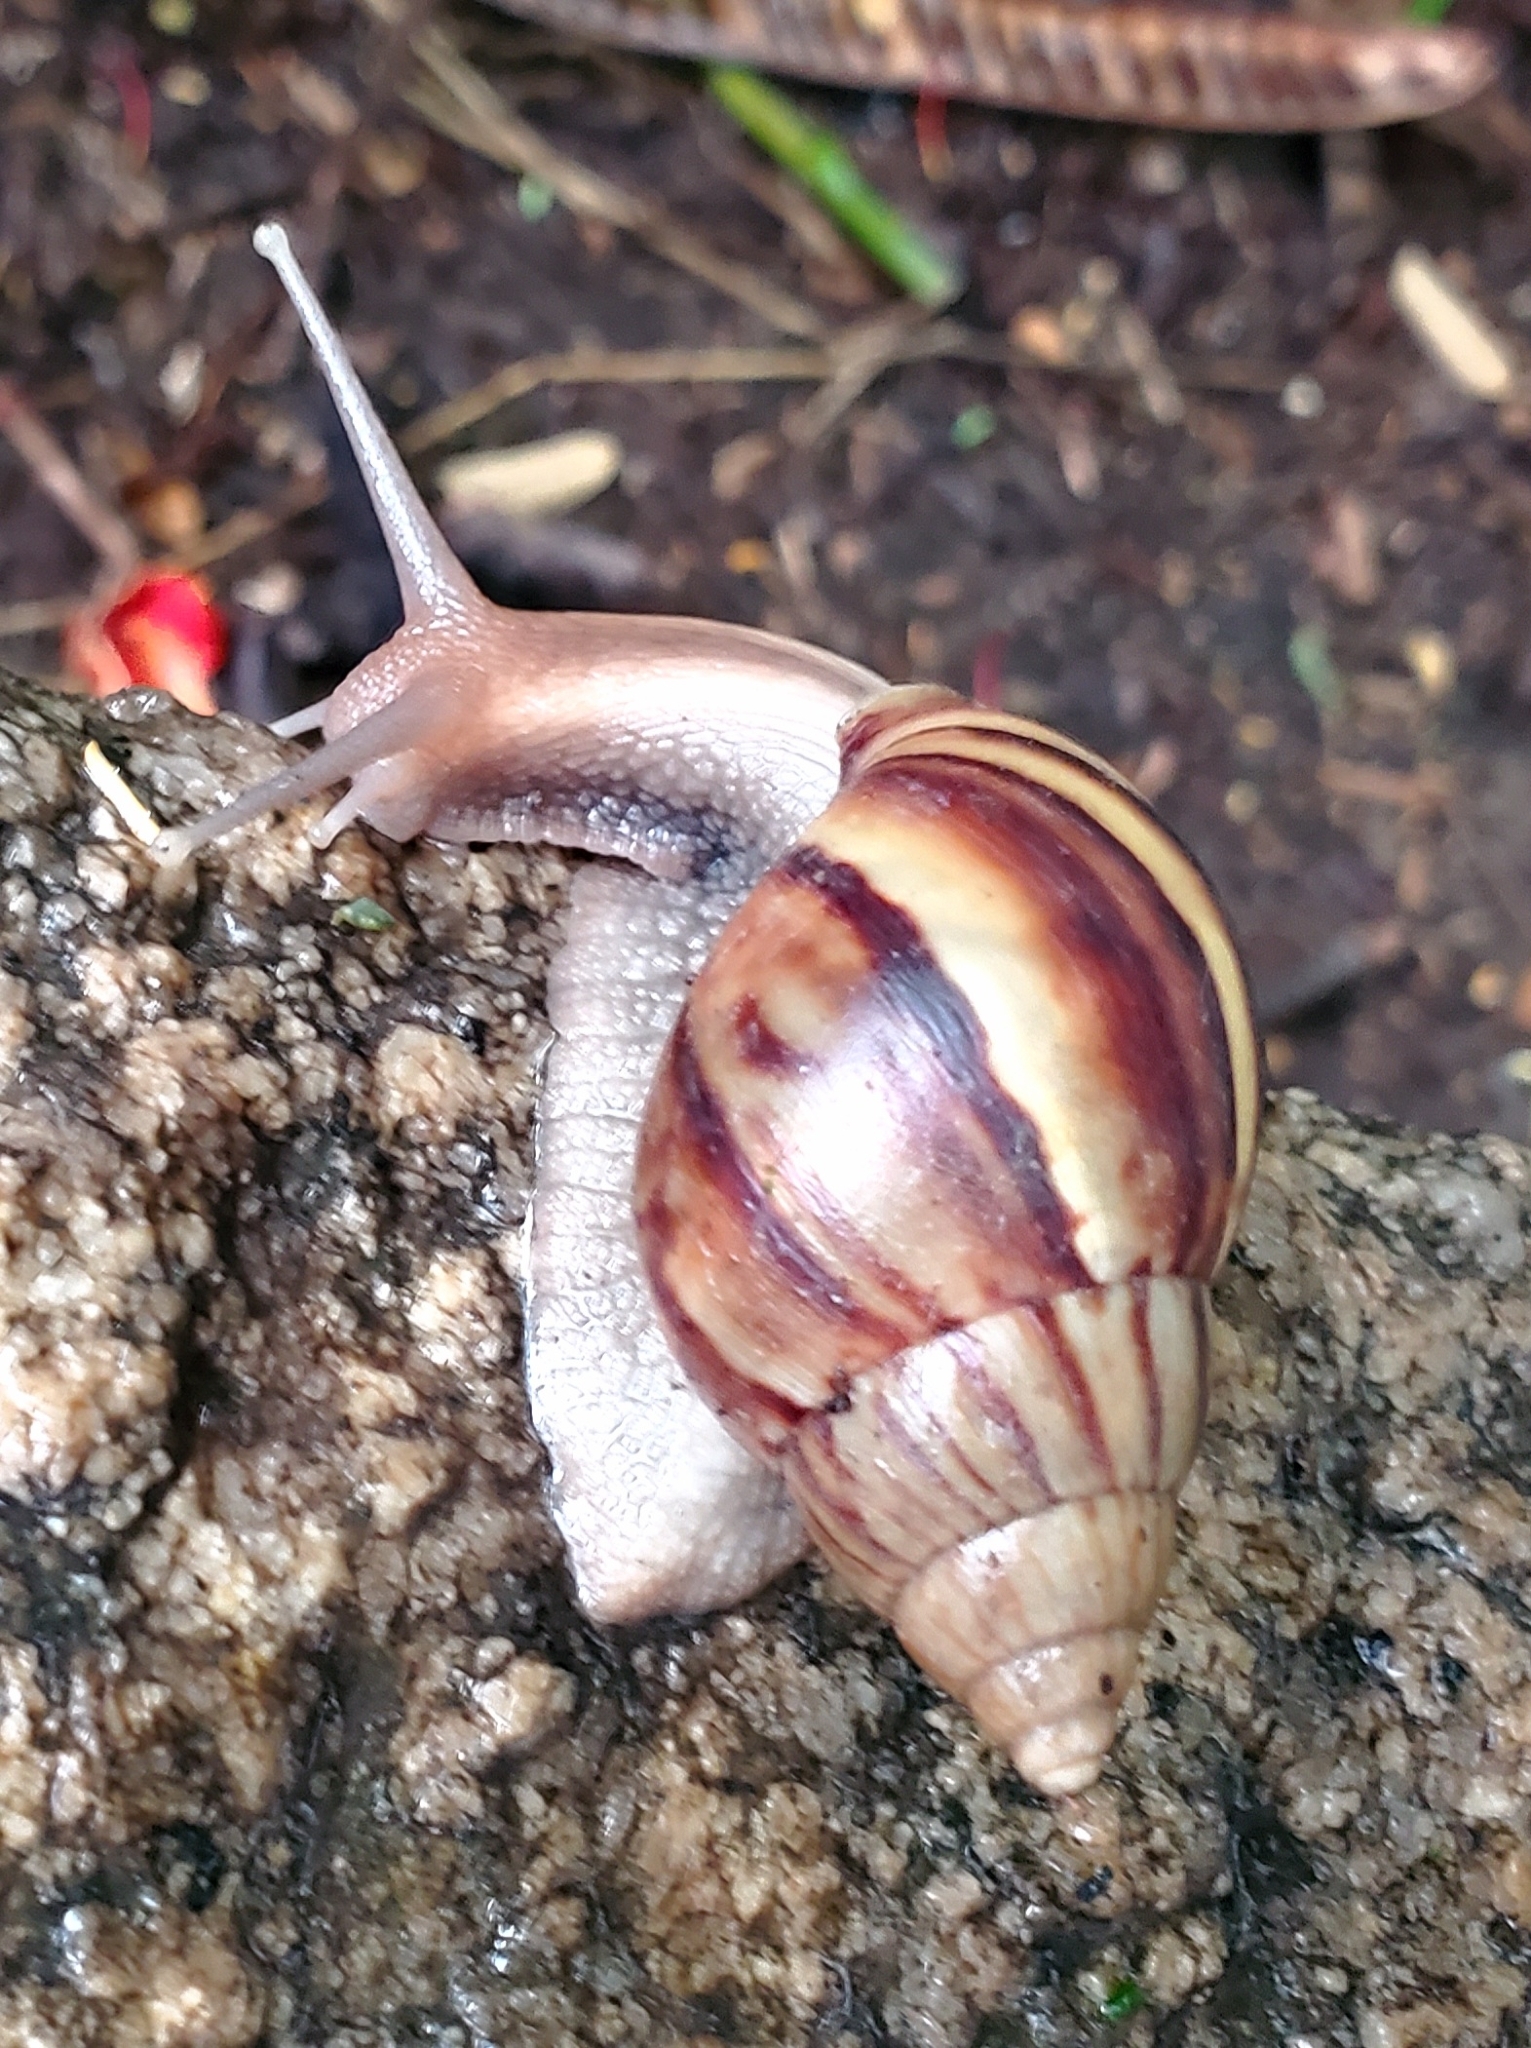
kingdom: Animalia
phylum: Mollusca
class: Gastropoda
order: Stylommatophora
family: Achatinidae
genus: Lissachatina
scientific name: Lissachatina fulica
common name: Giant african snail
